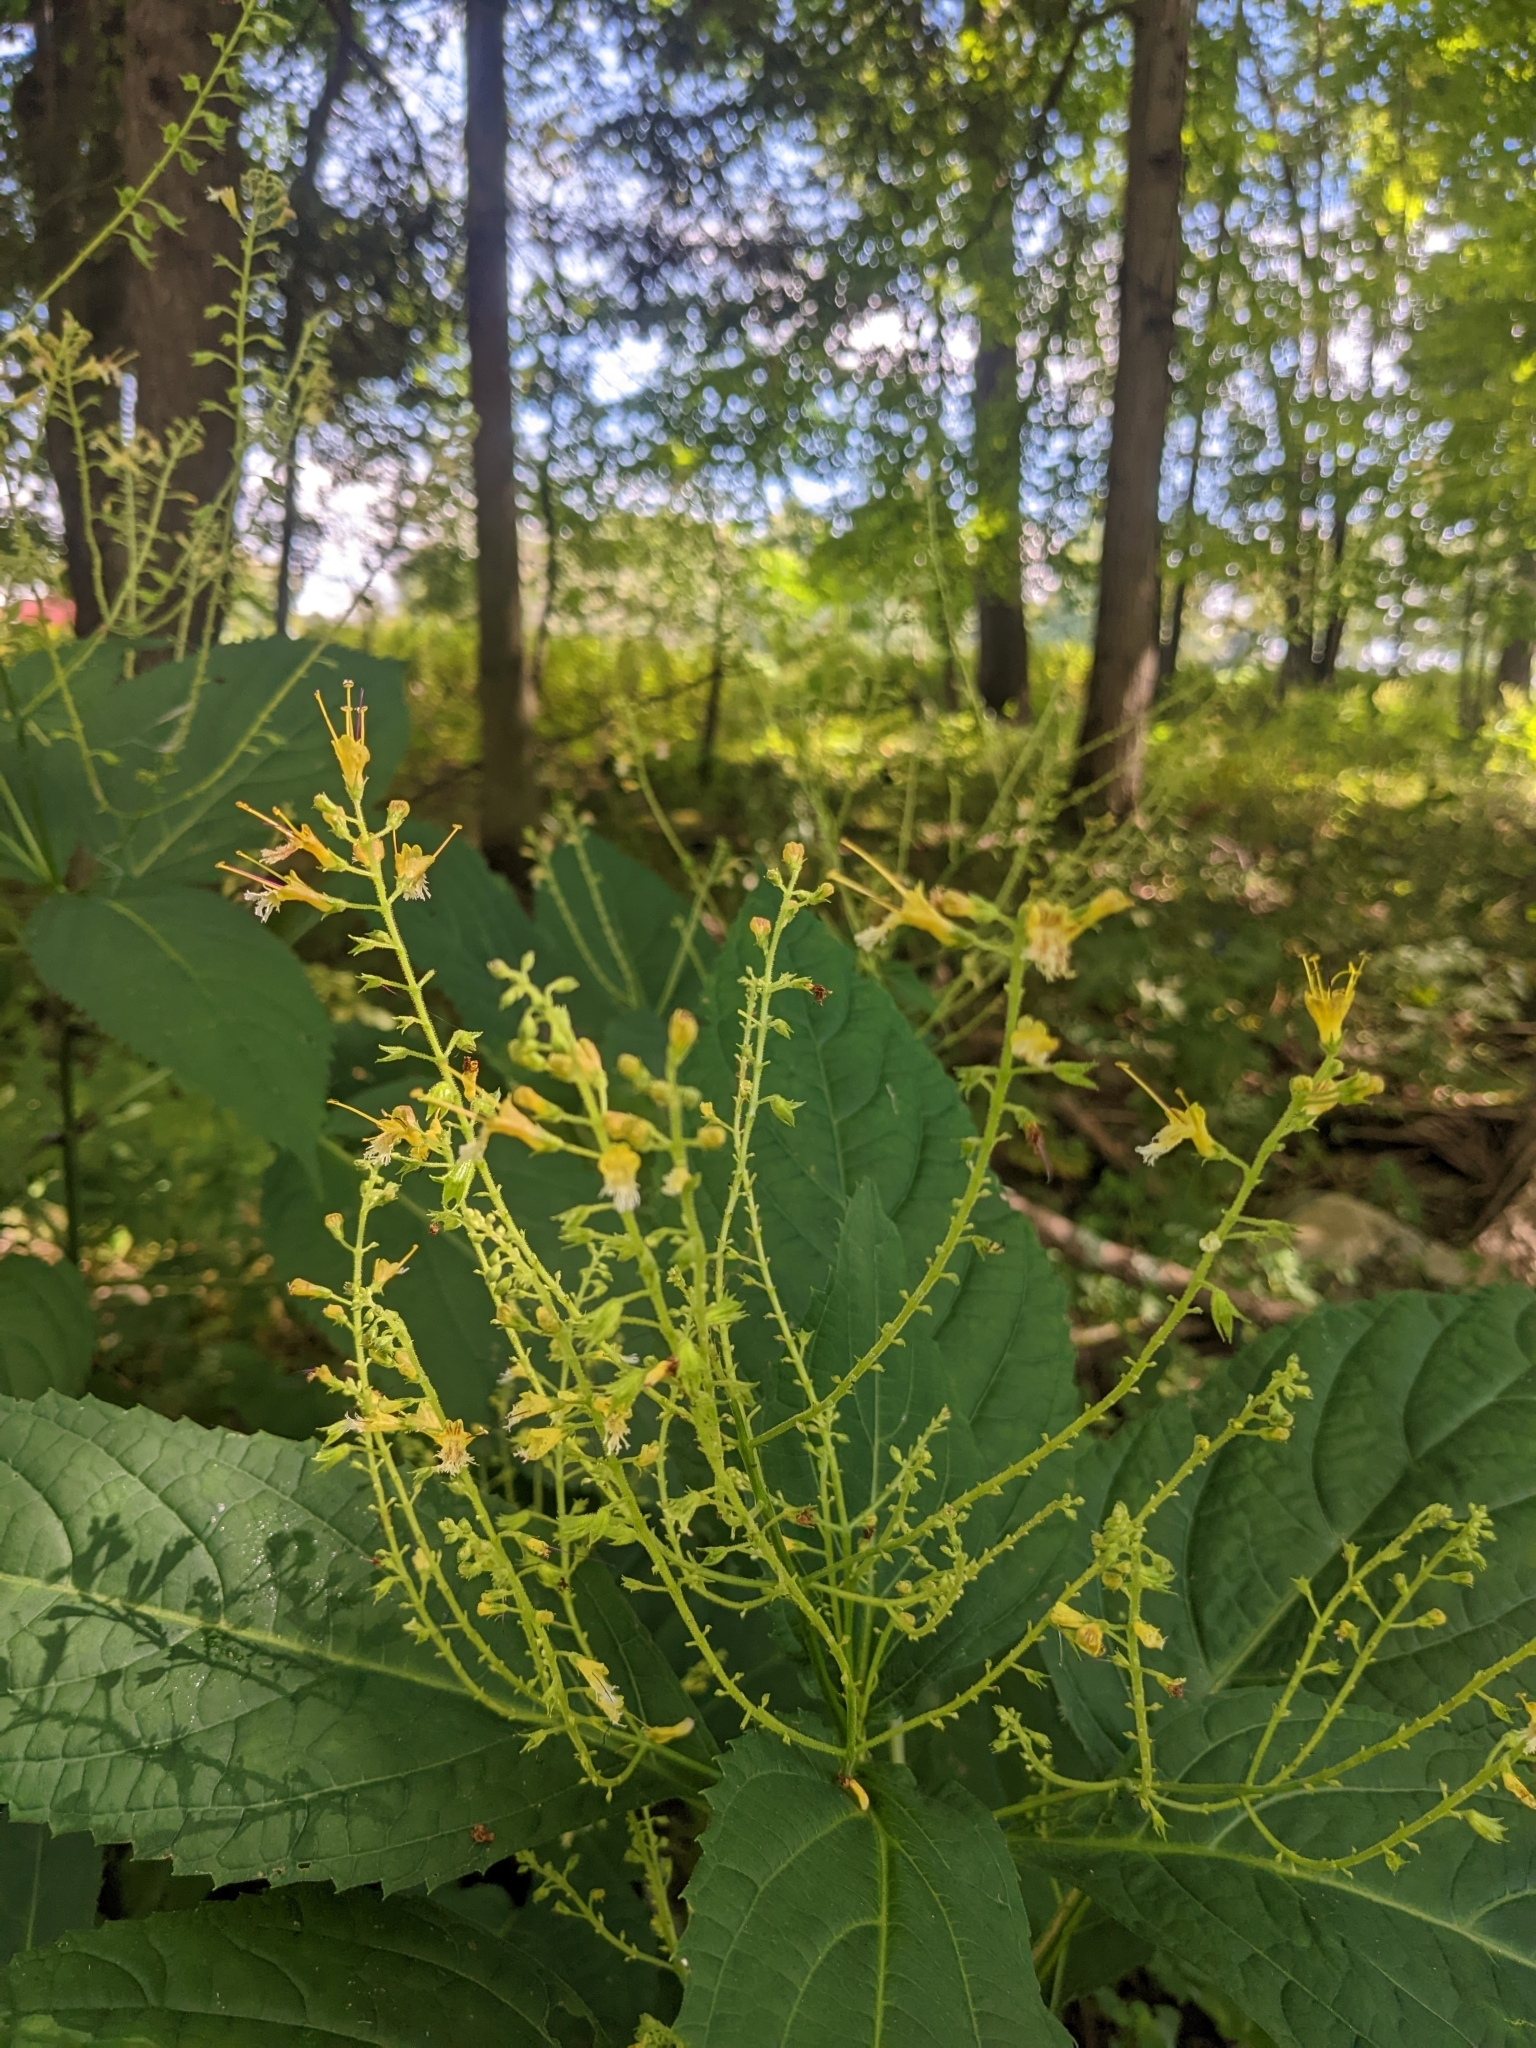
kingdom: Plantae
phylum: Tracheophyta
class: Magnoliopsida
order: Lamiales
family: Lamiaceae
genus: Collinsonia
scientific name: Collinsonia canadensis
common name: Northern horsebalm
